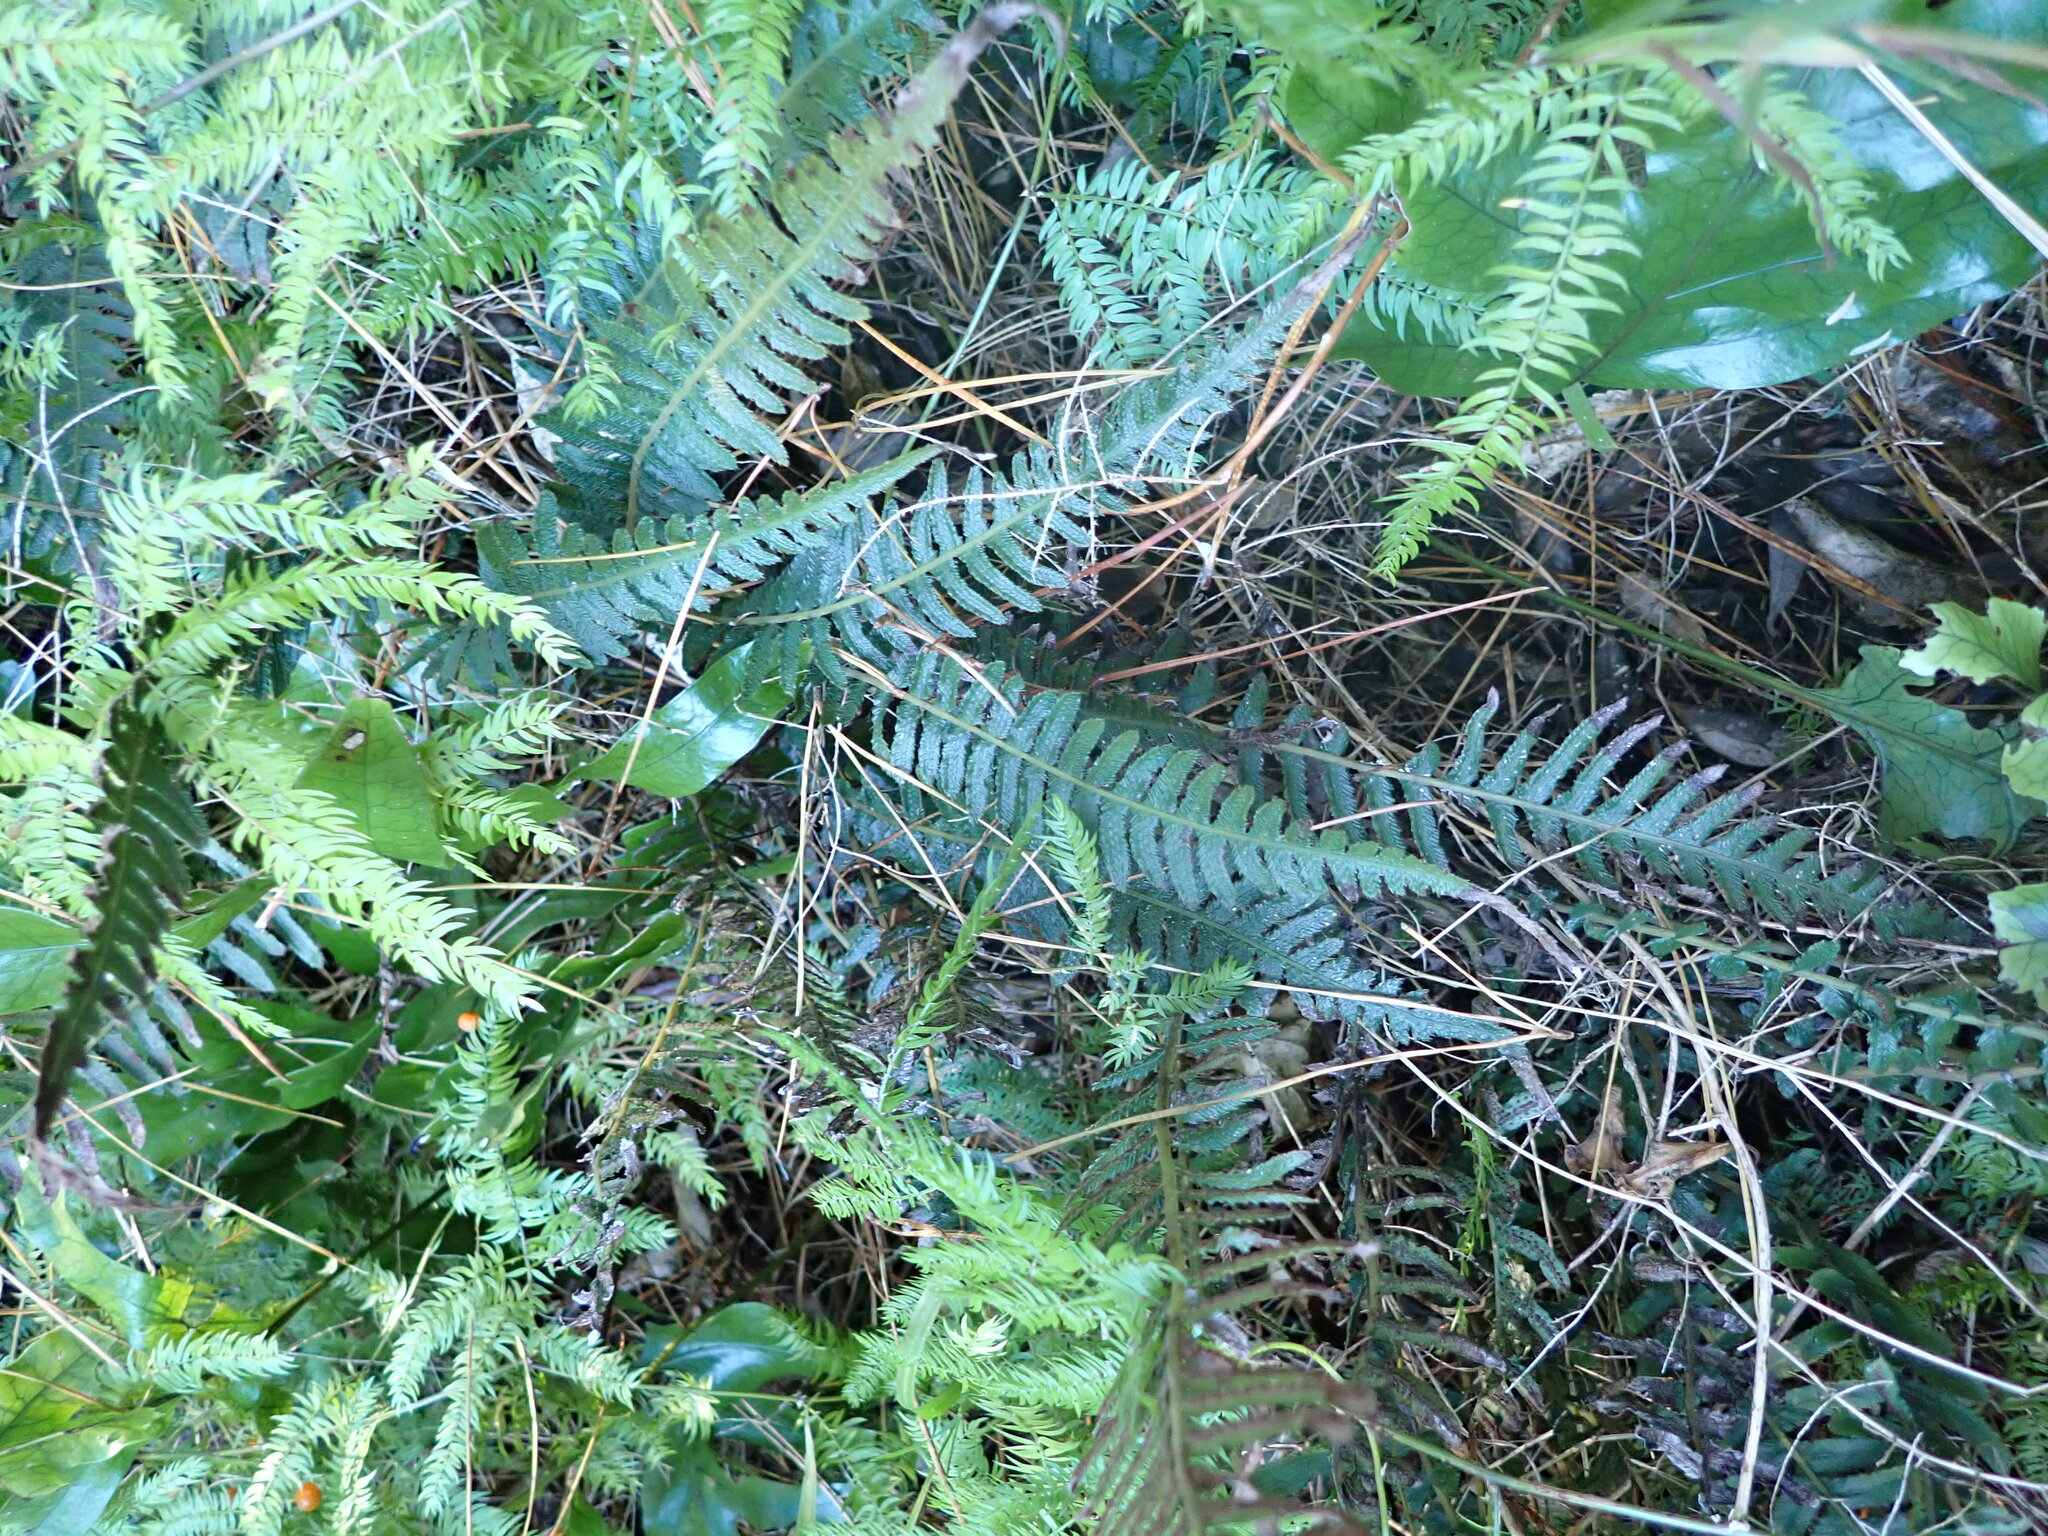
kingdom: Plantae
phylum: Tracheophyta
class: Polypodiopsida
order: Polypodiales
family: Blechnaceae
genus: Doodia
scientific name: Doodia australis
